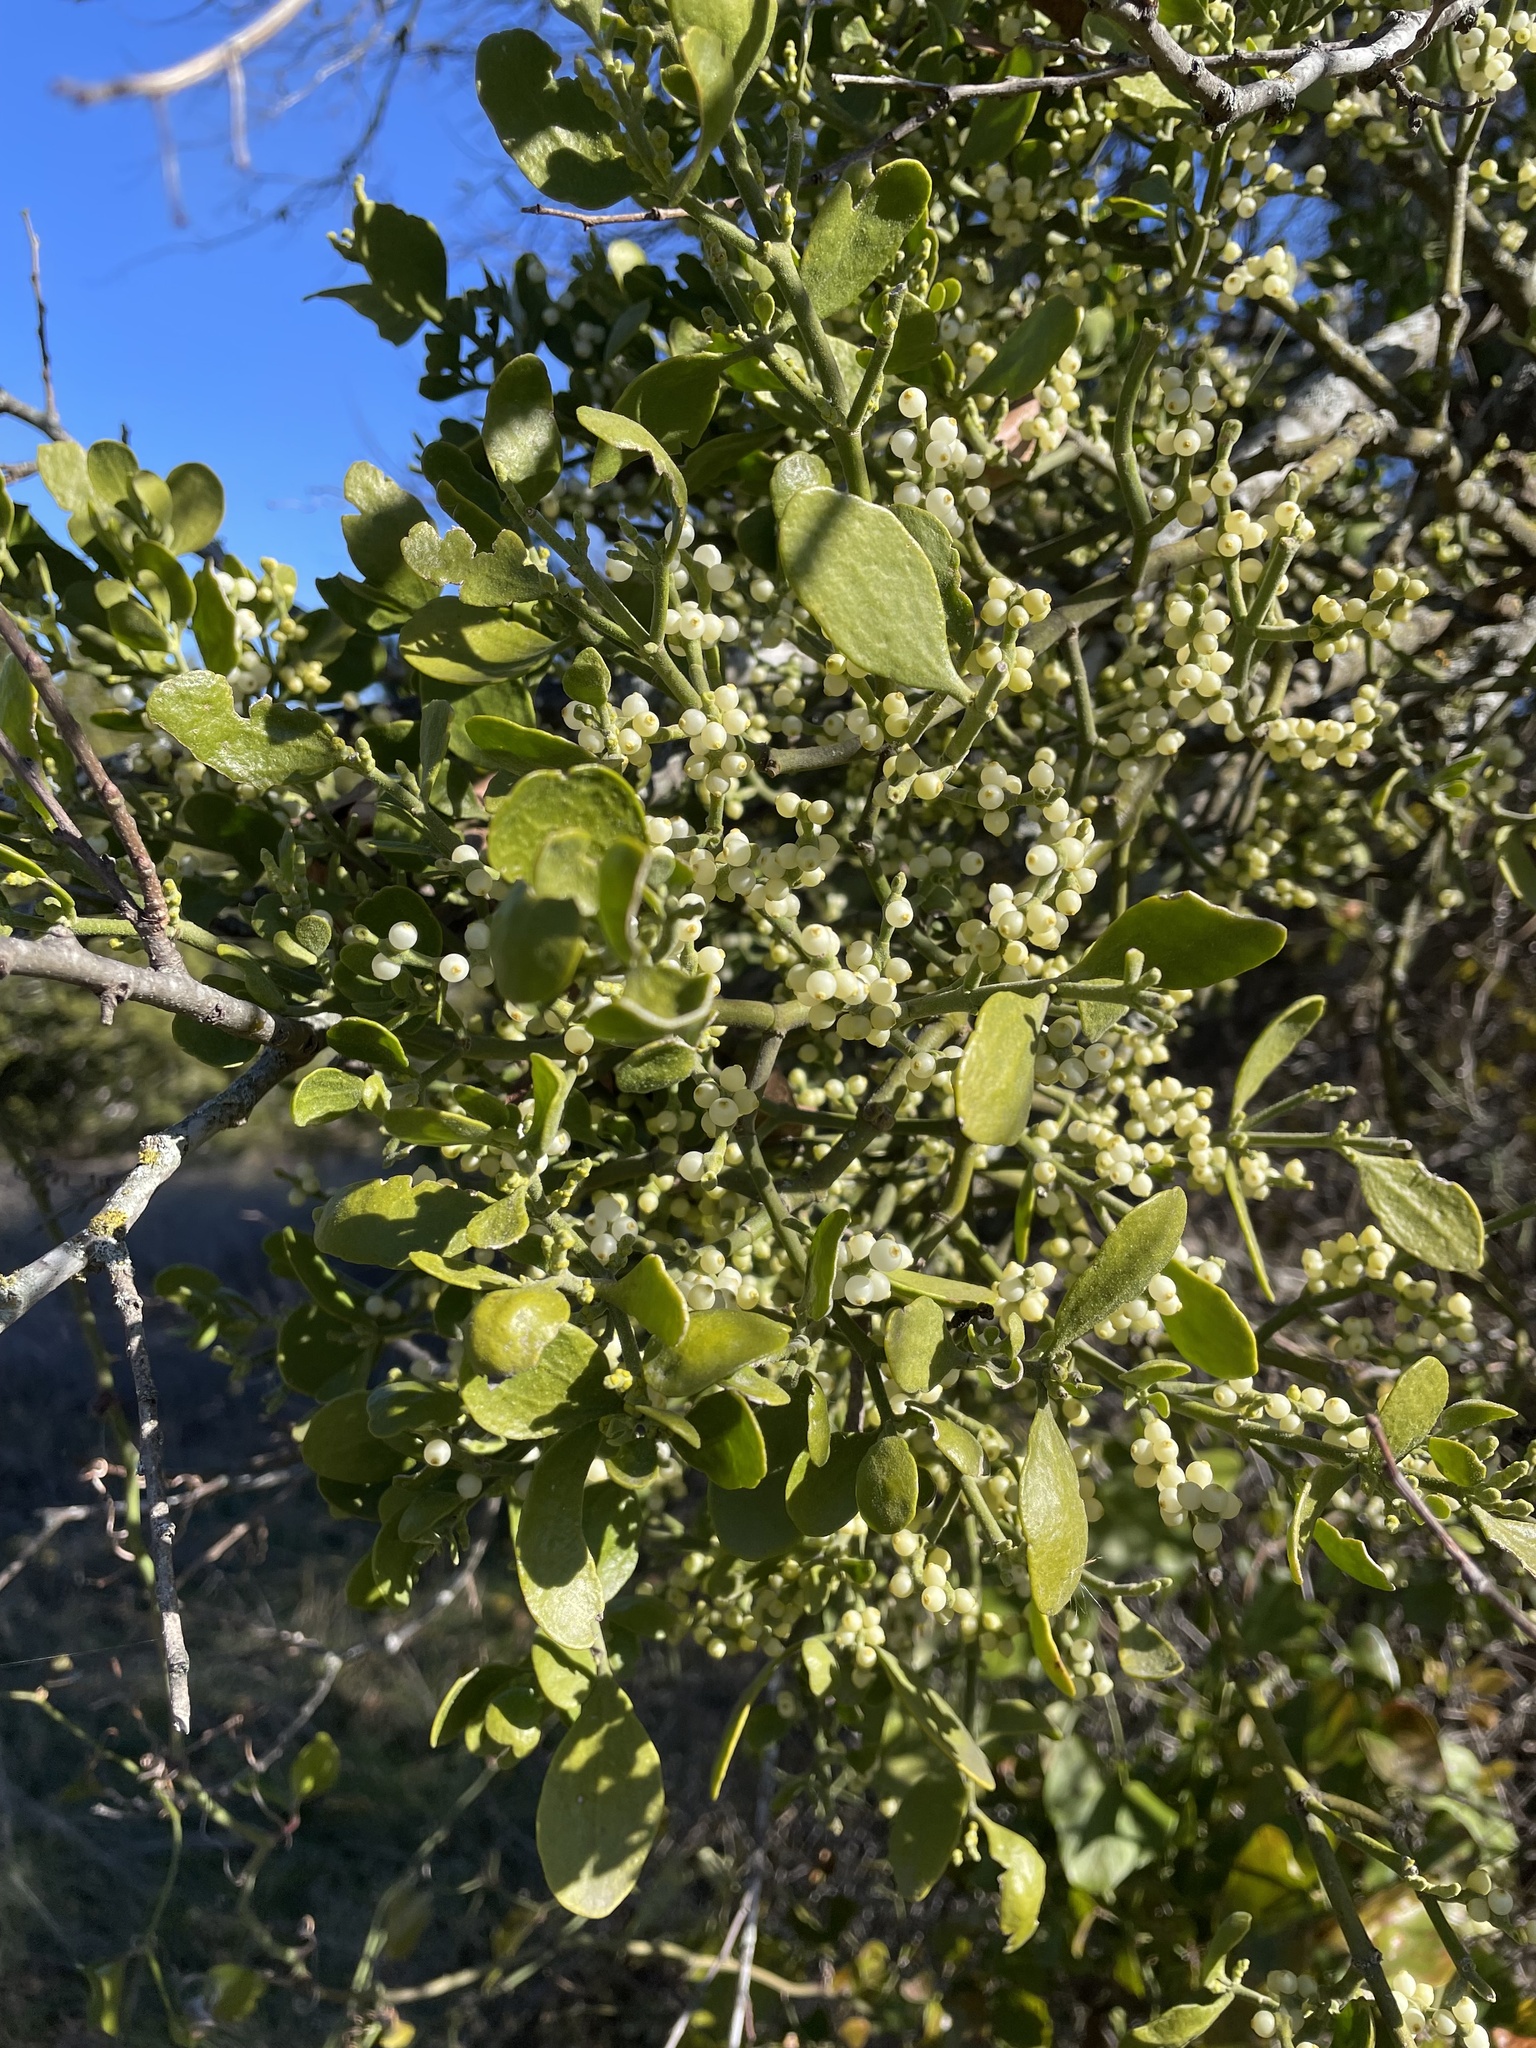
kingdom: Plantae
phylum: Tracheophyta
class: Magnoliopsida
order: Santalales
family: Viscaceae
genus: Phoradendron
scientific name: Phoradendron leucarpum
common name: Pacific mistletoe
